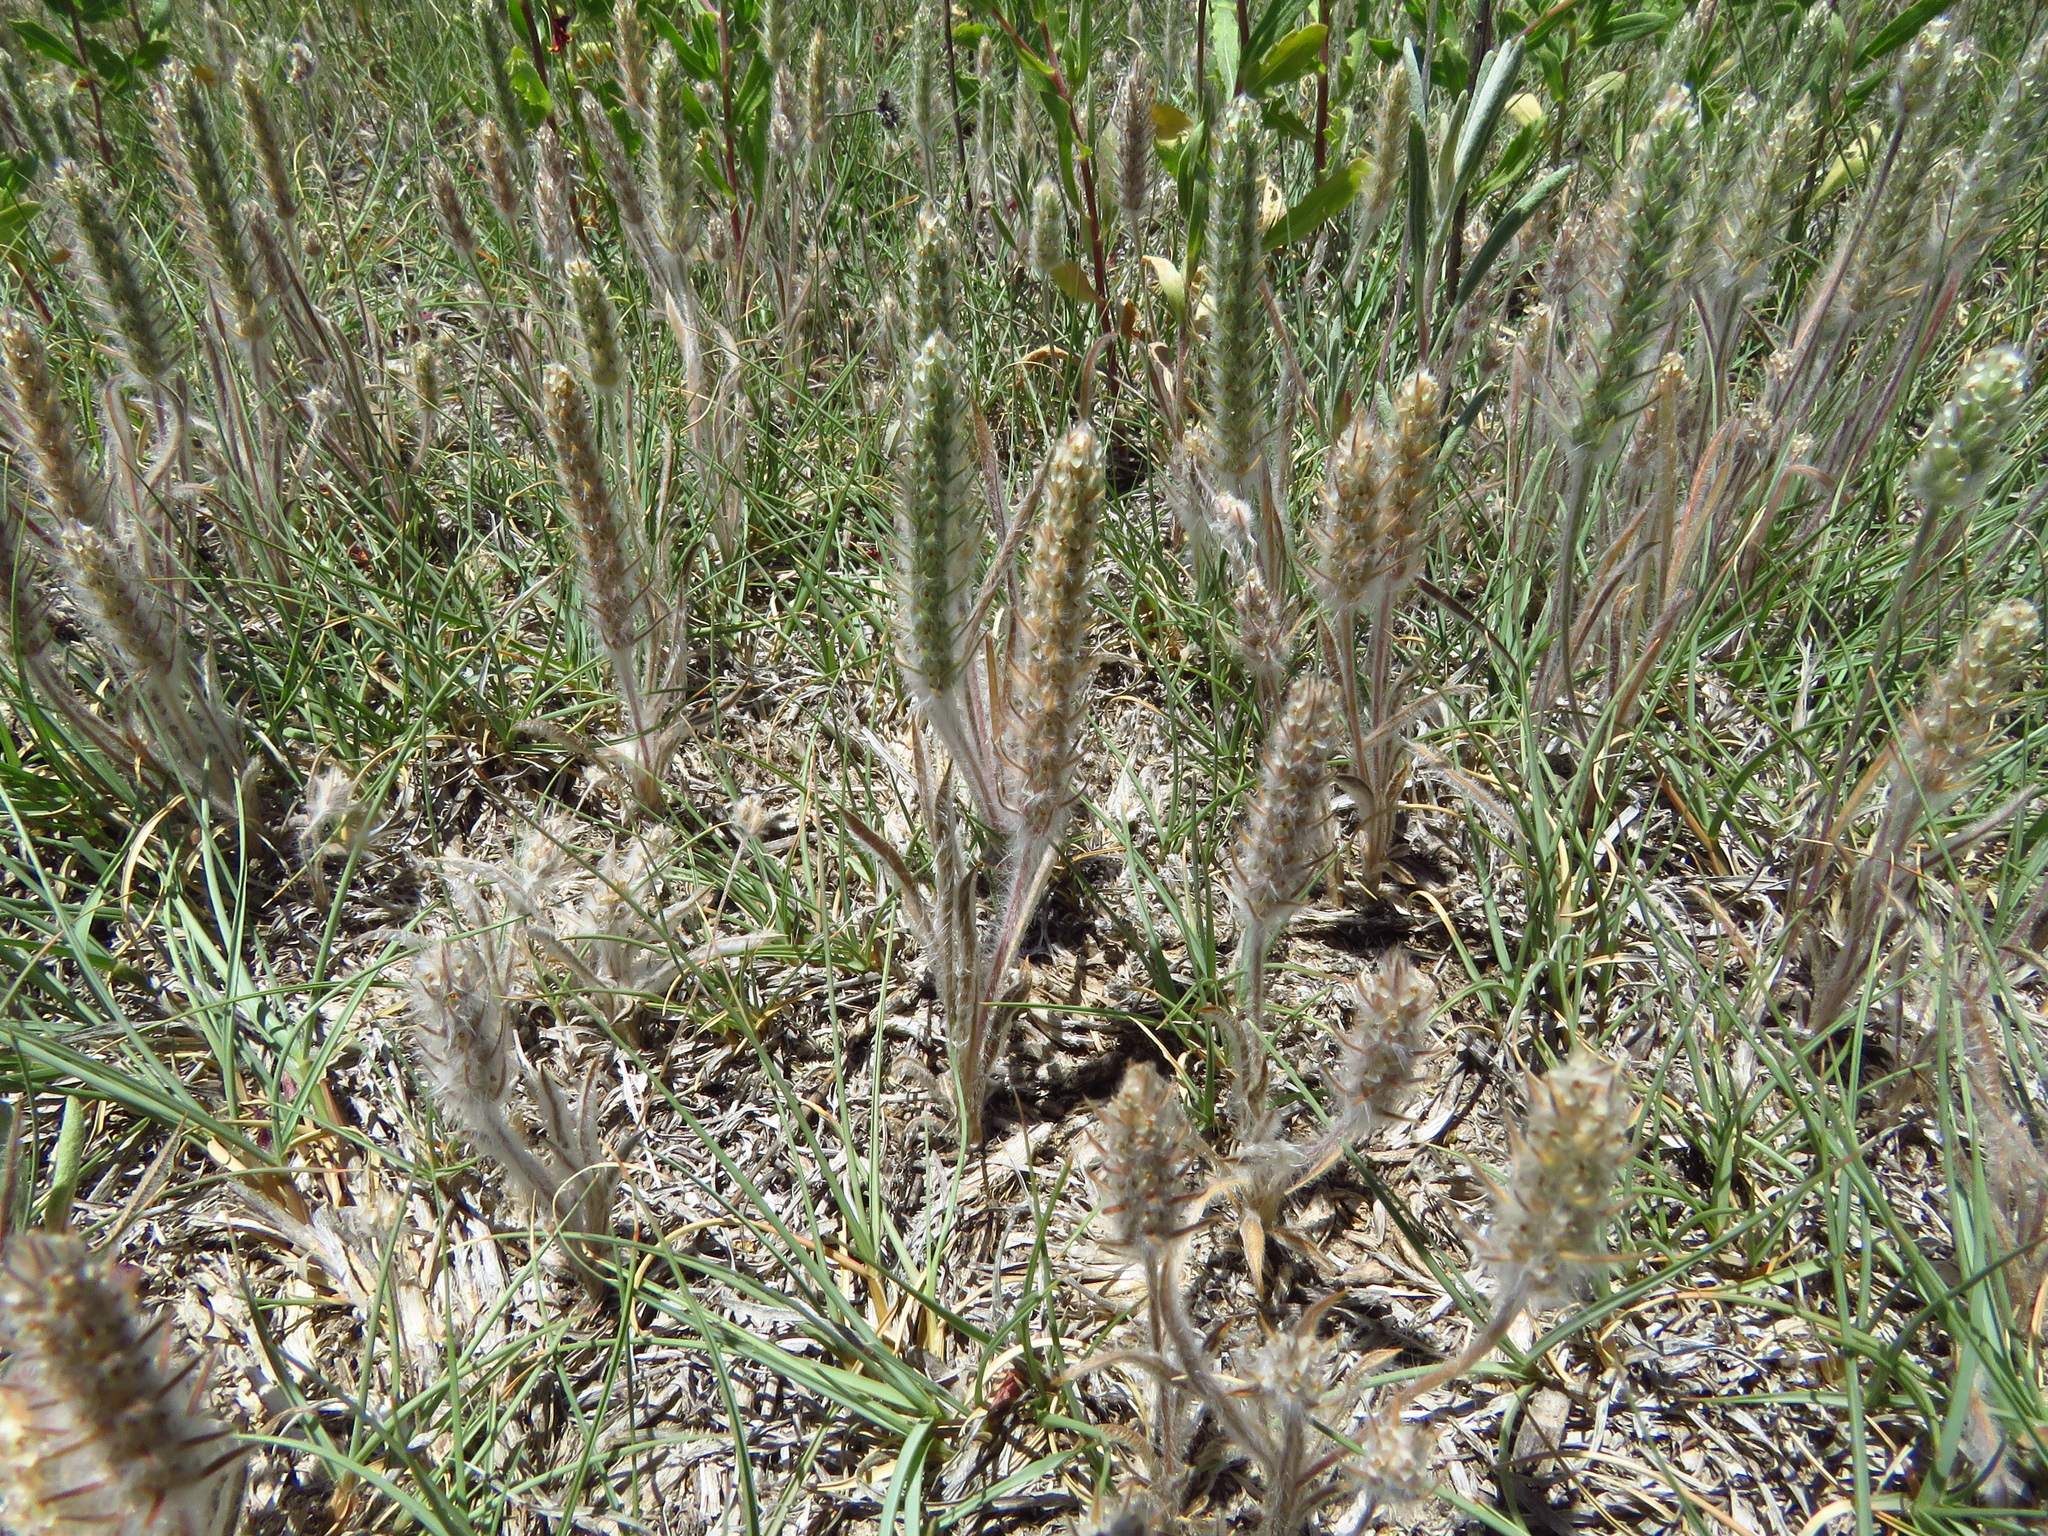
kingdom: Plantae
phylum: Tracheophyta
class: Magnoliopsida
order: Lamiales
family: Plantaginaceae
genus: Plantago
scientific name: Plantago patagonica
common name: Patagonia indian-wheat
